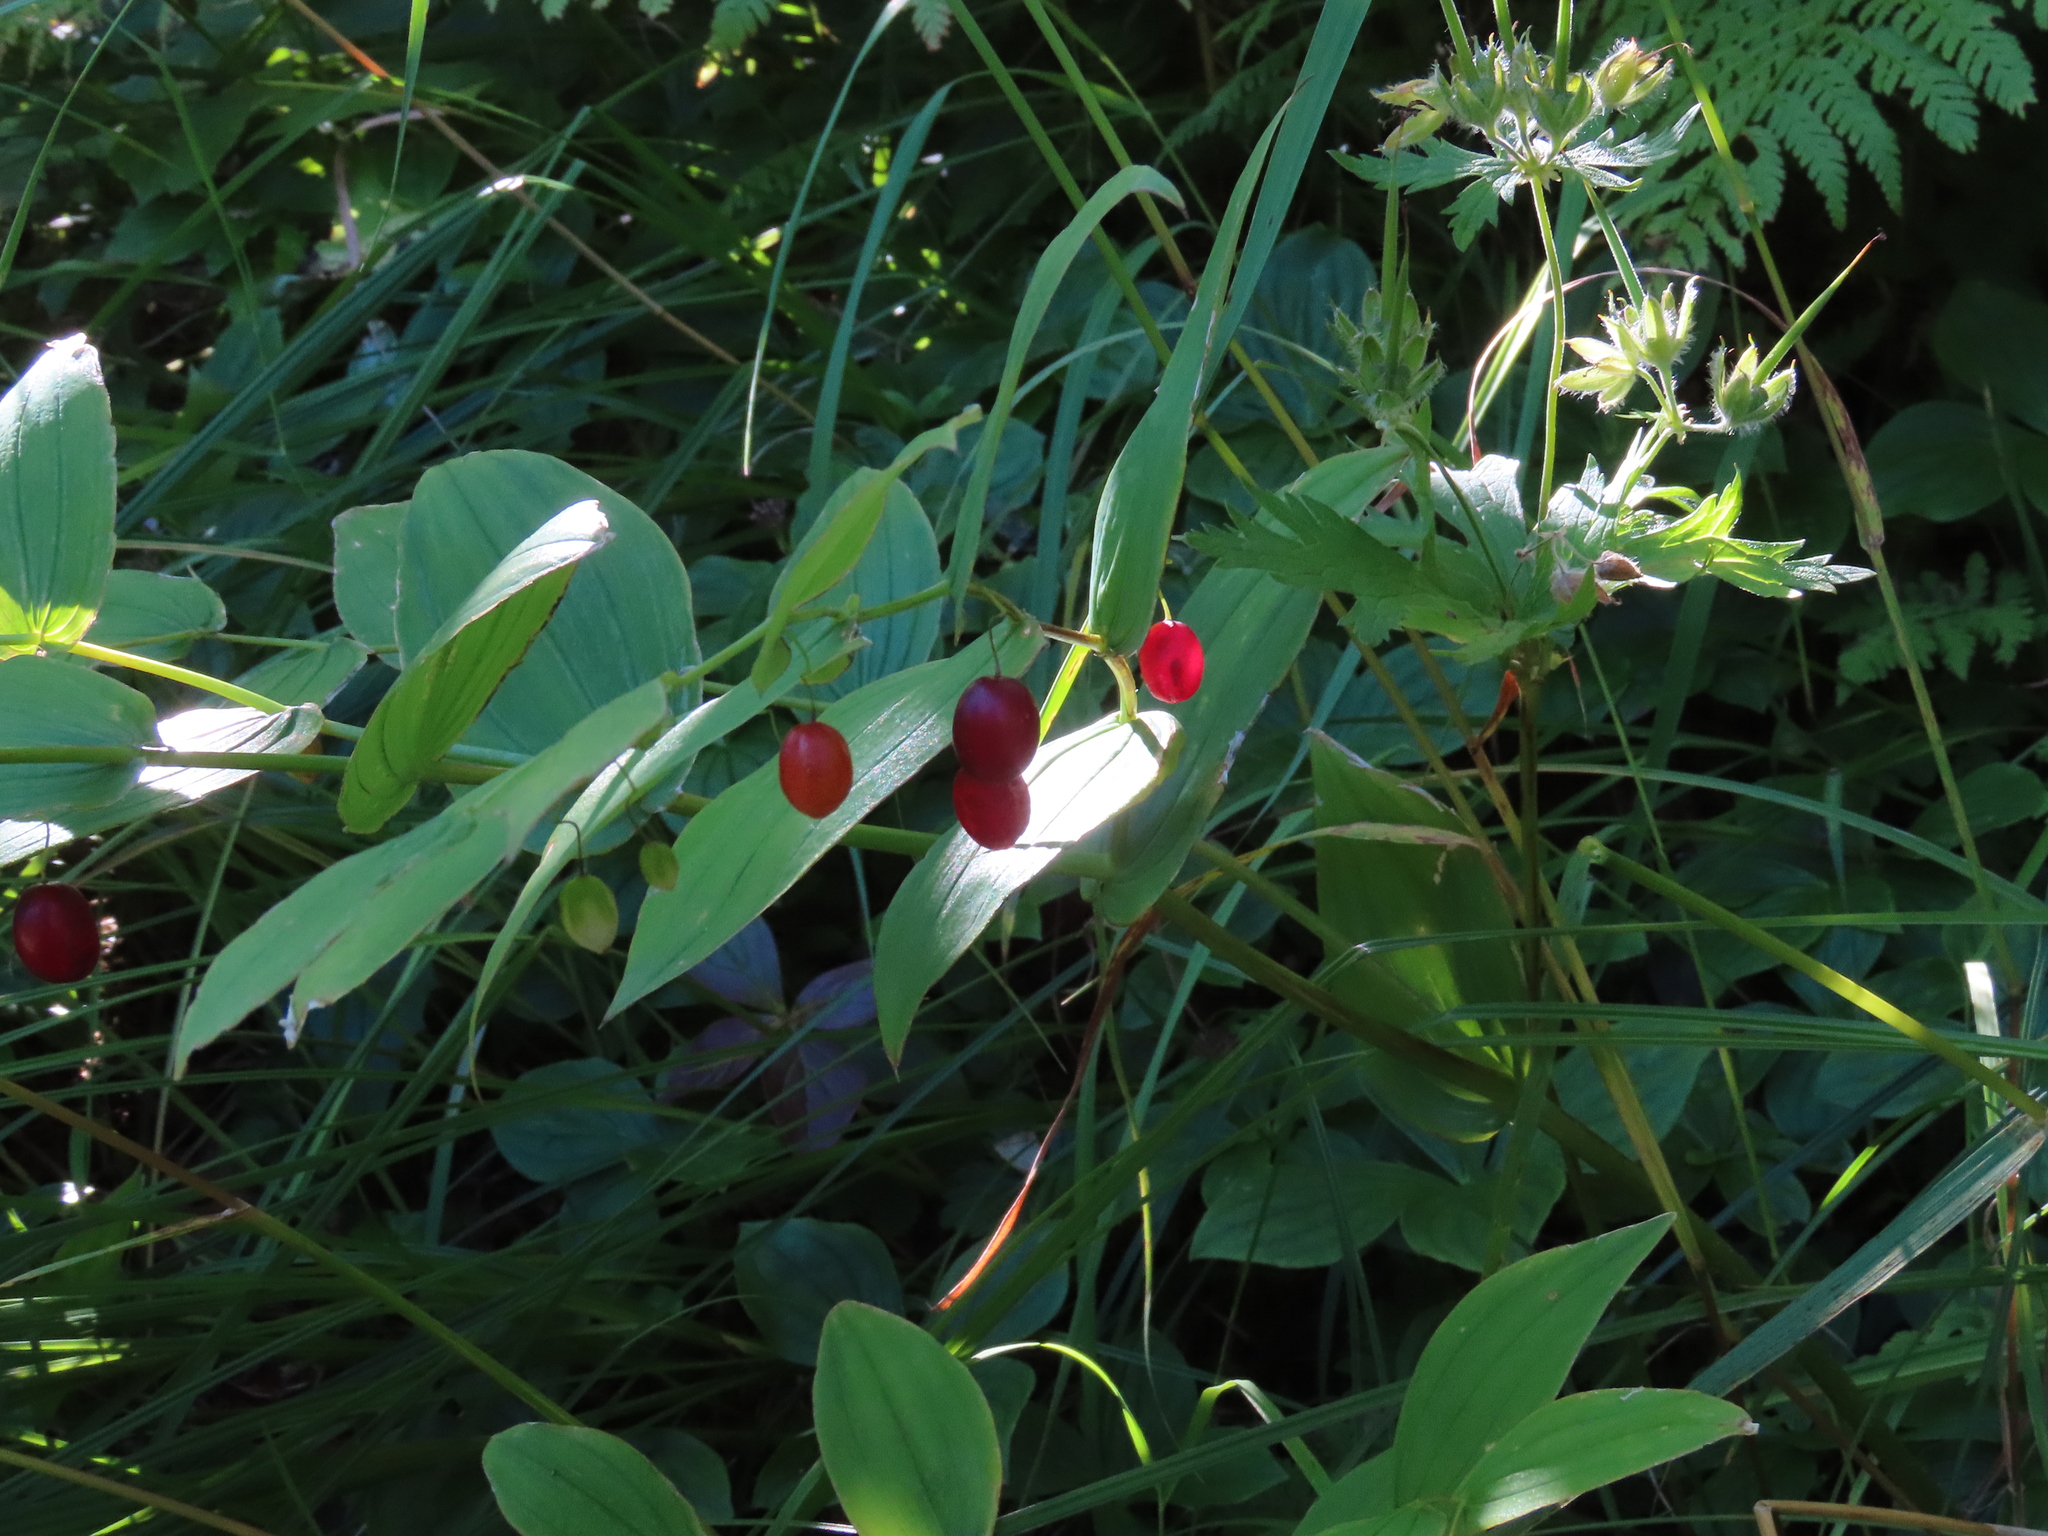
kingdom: Plantae
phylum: Tracheophyta
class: Liliopsida
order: Liliales
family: Liliaceae
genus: Streptopus
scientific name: Streptopus amplexifolius
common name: Clasp twisted stalk
